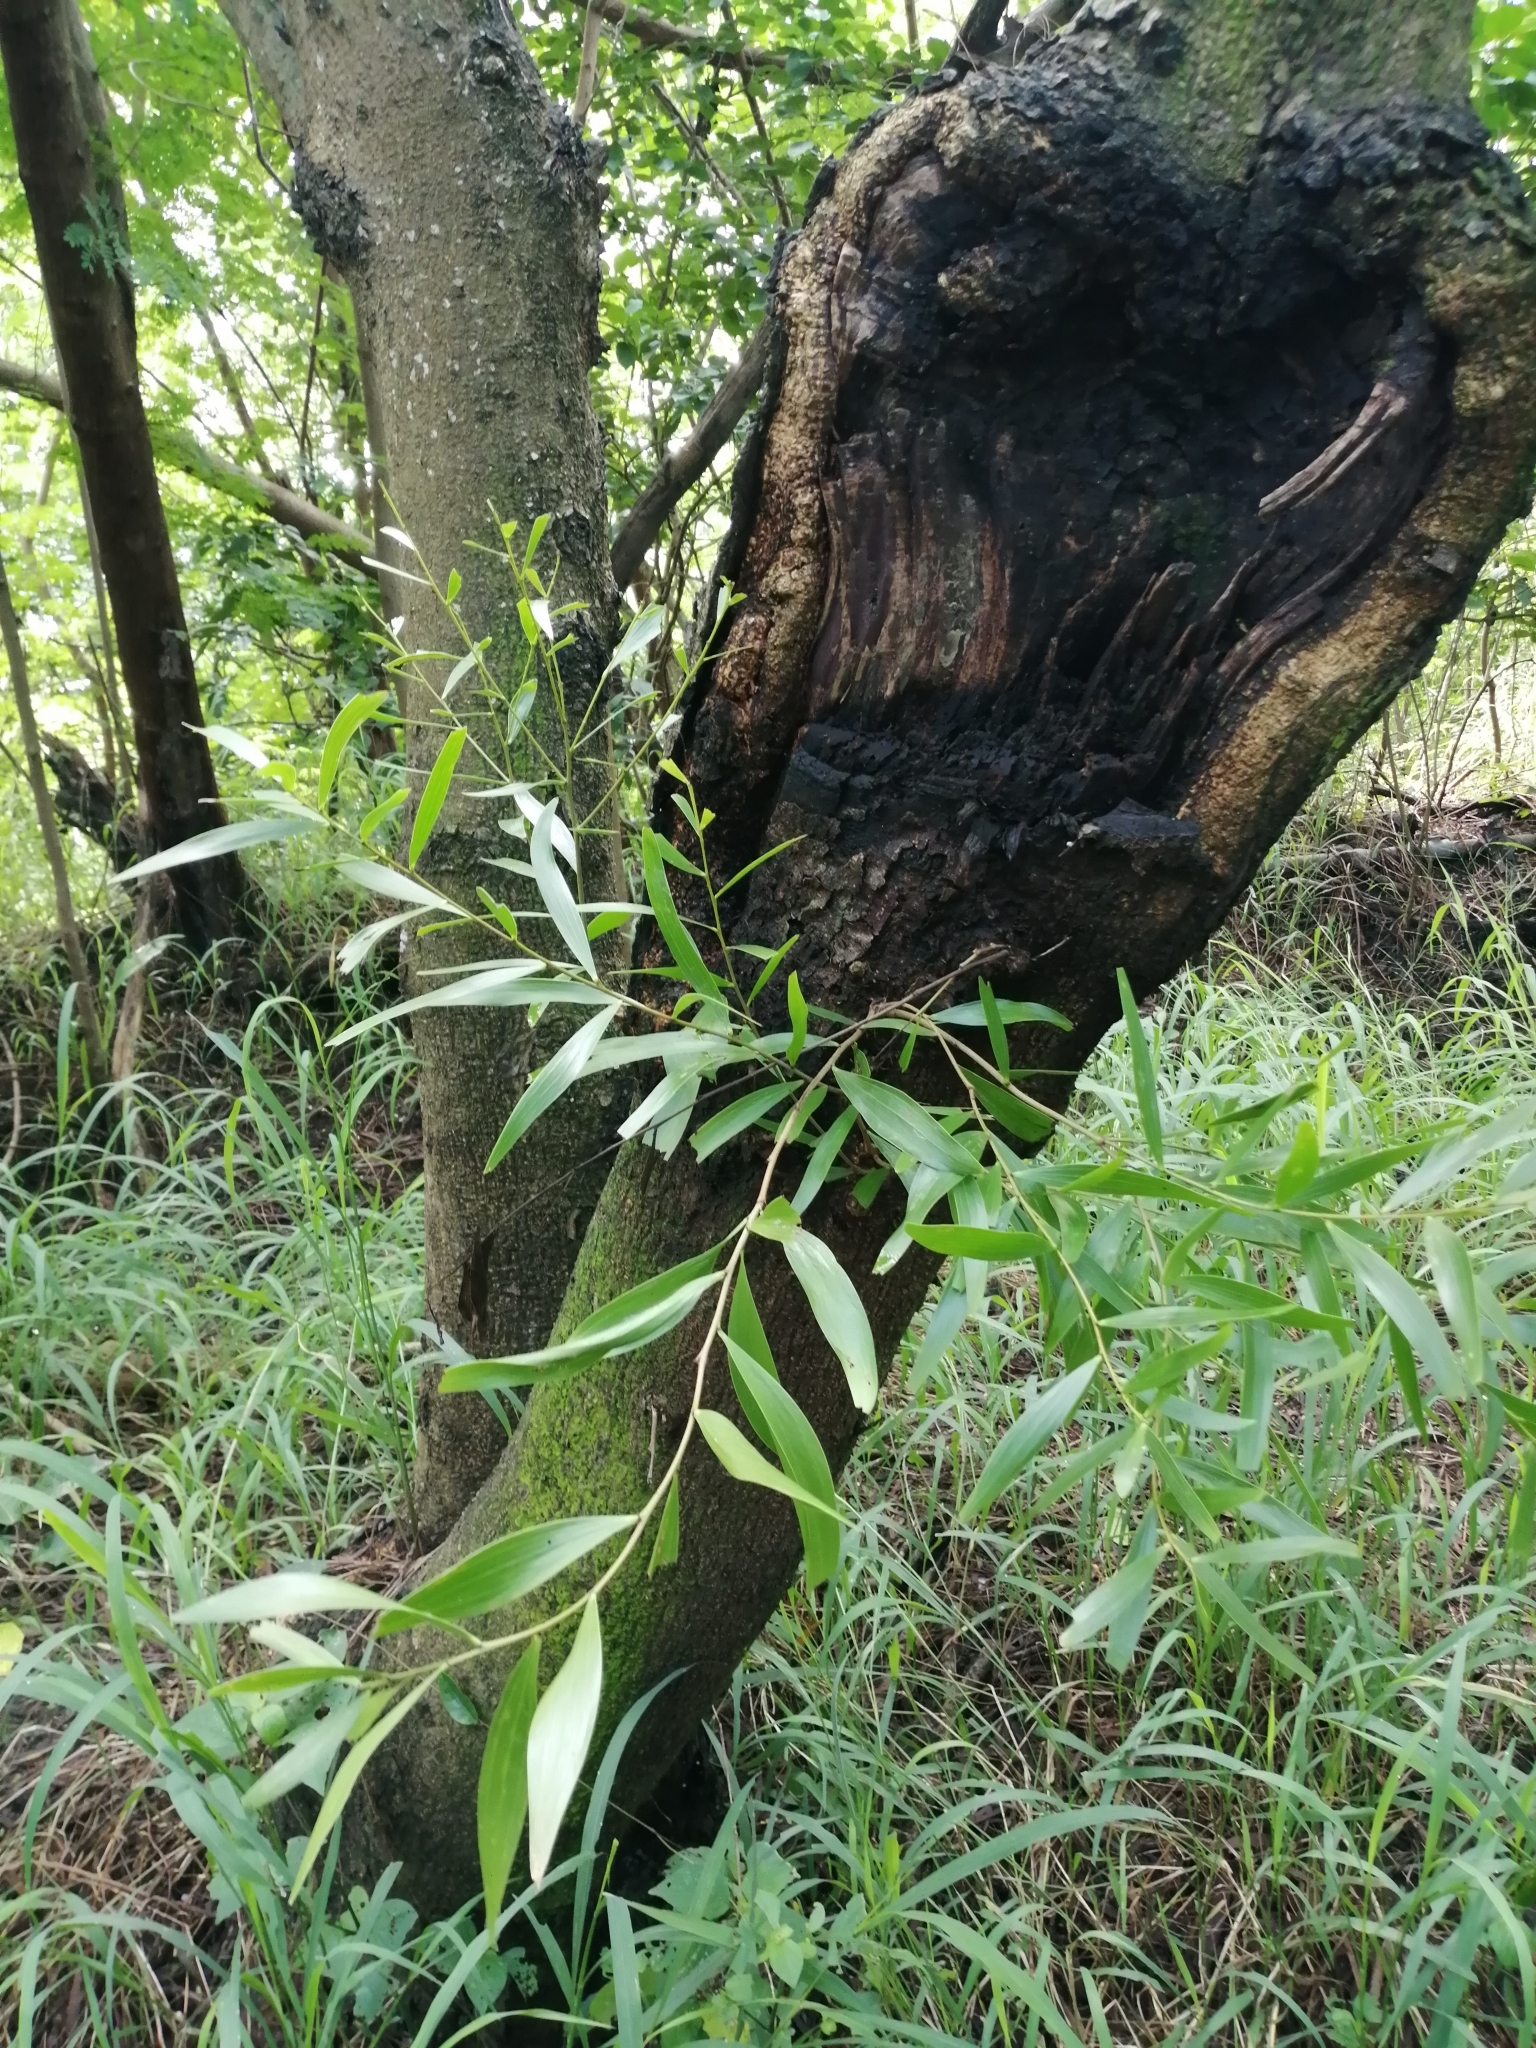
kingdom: Plantae
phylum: Tracheophyta
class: Magnoliopsida
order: Fabales
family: Fabaceae
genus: Acacia
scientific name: Acacia confusa
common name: Formosan koa
